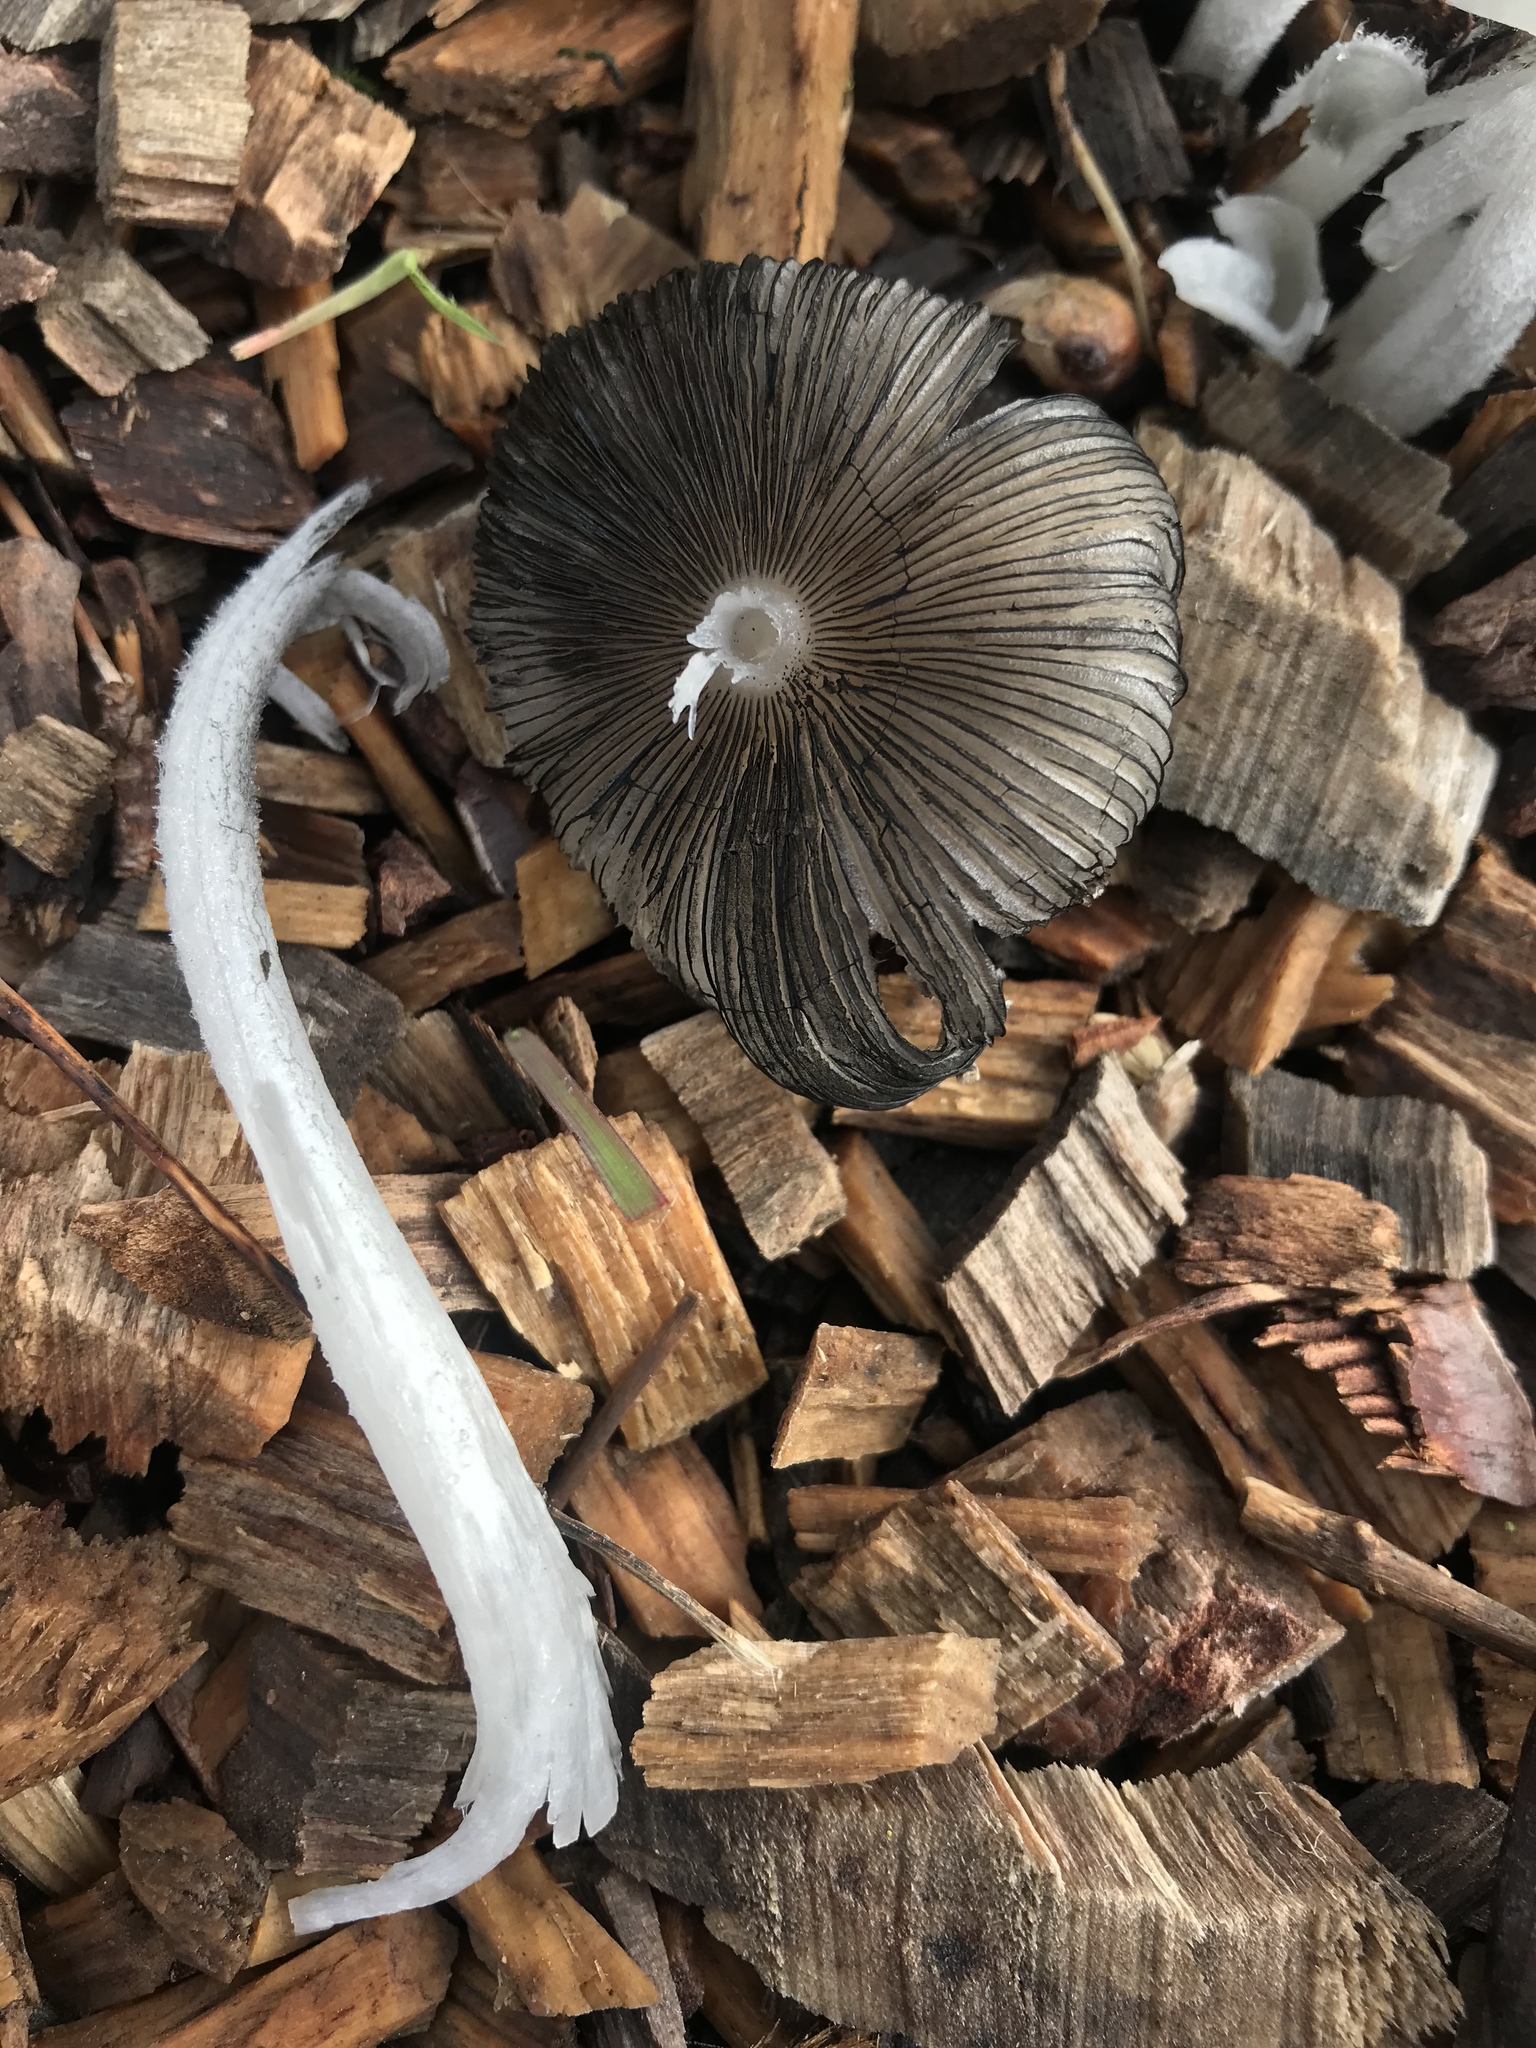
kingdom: Fungi
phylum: Basidiomycota
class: Agaricomycetes
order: Agaricales
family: Psathyrellaceae
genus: Coprinopsis
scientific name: Coprinopsis lagopus
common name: Hare'sfoot inkcap
